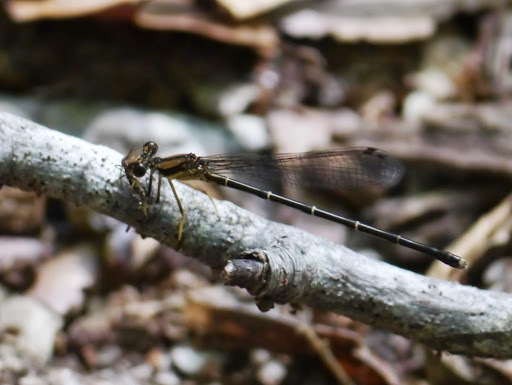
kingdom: Animalia
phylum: Arthropoda
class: Insecta
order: Odonata
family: Coenagrionidae
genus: Argia
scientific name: Argia tibialis
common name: Blue-tipped dancer
